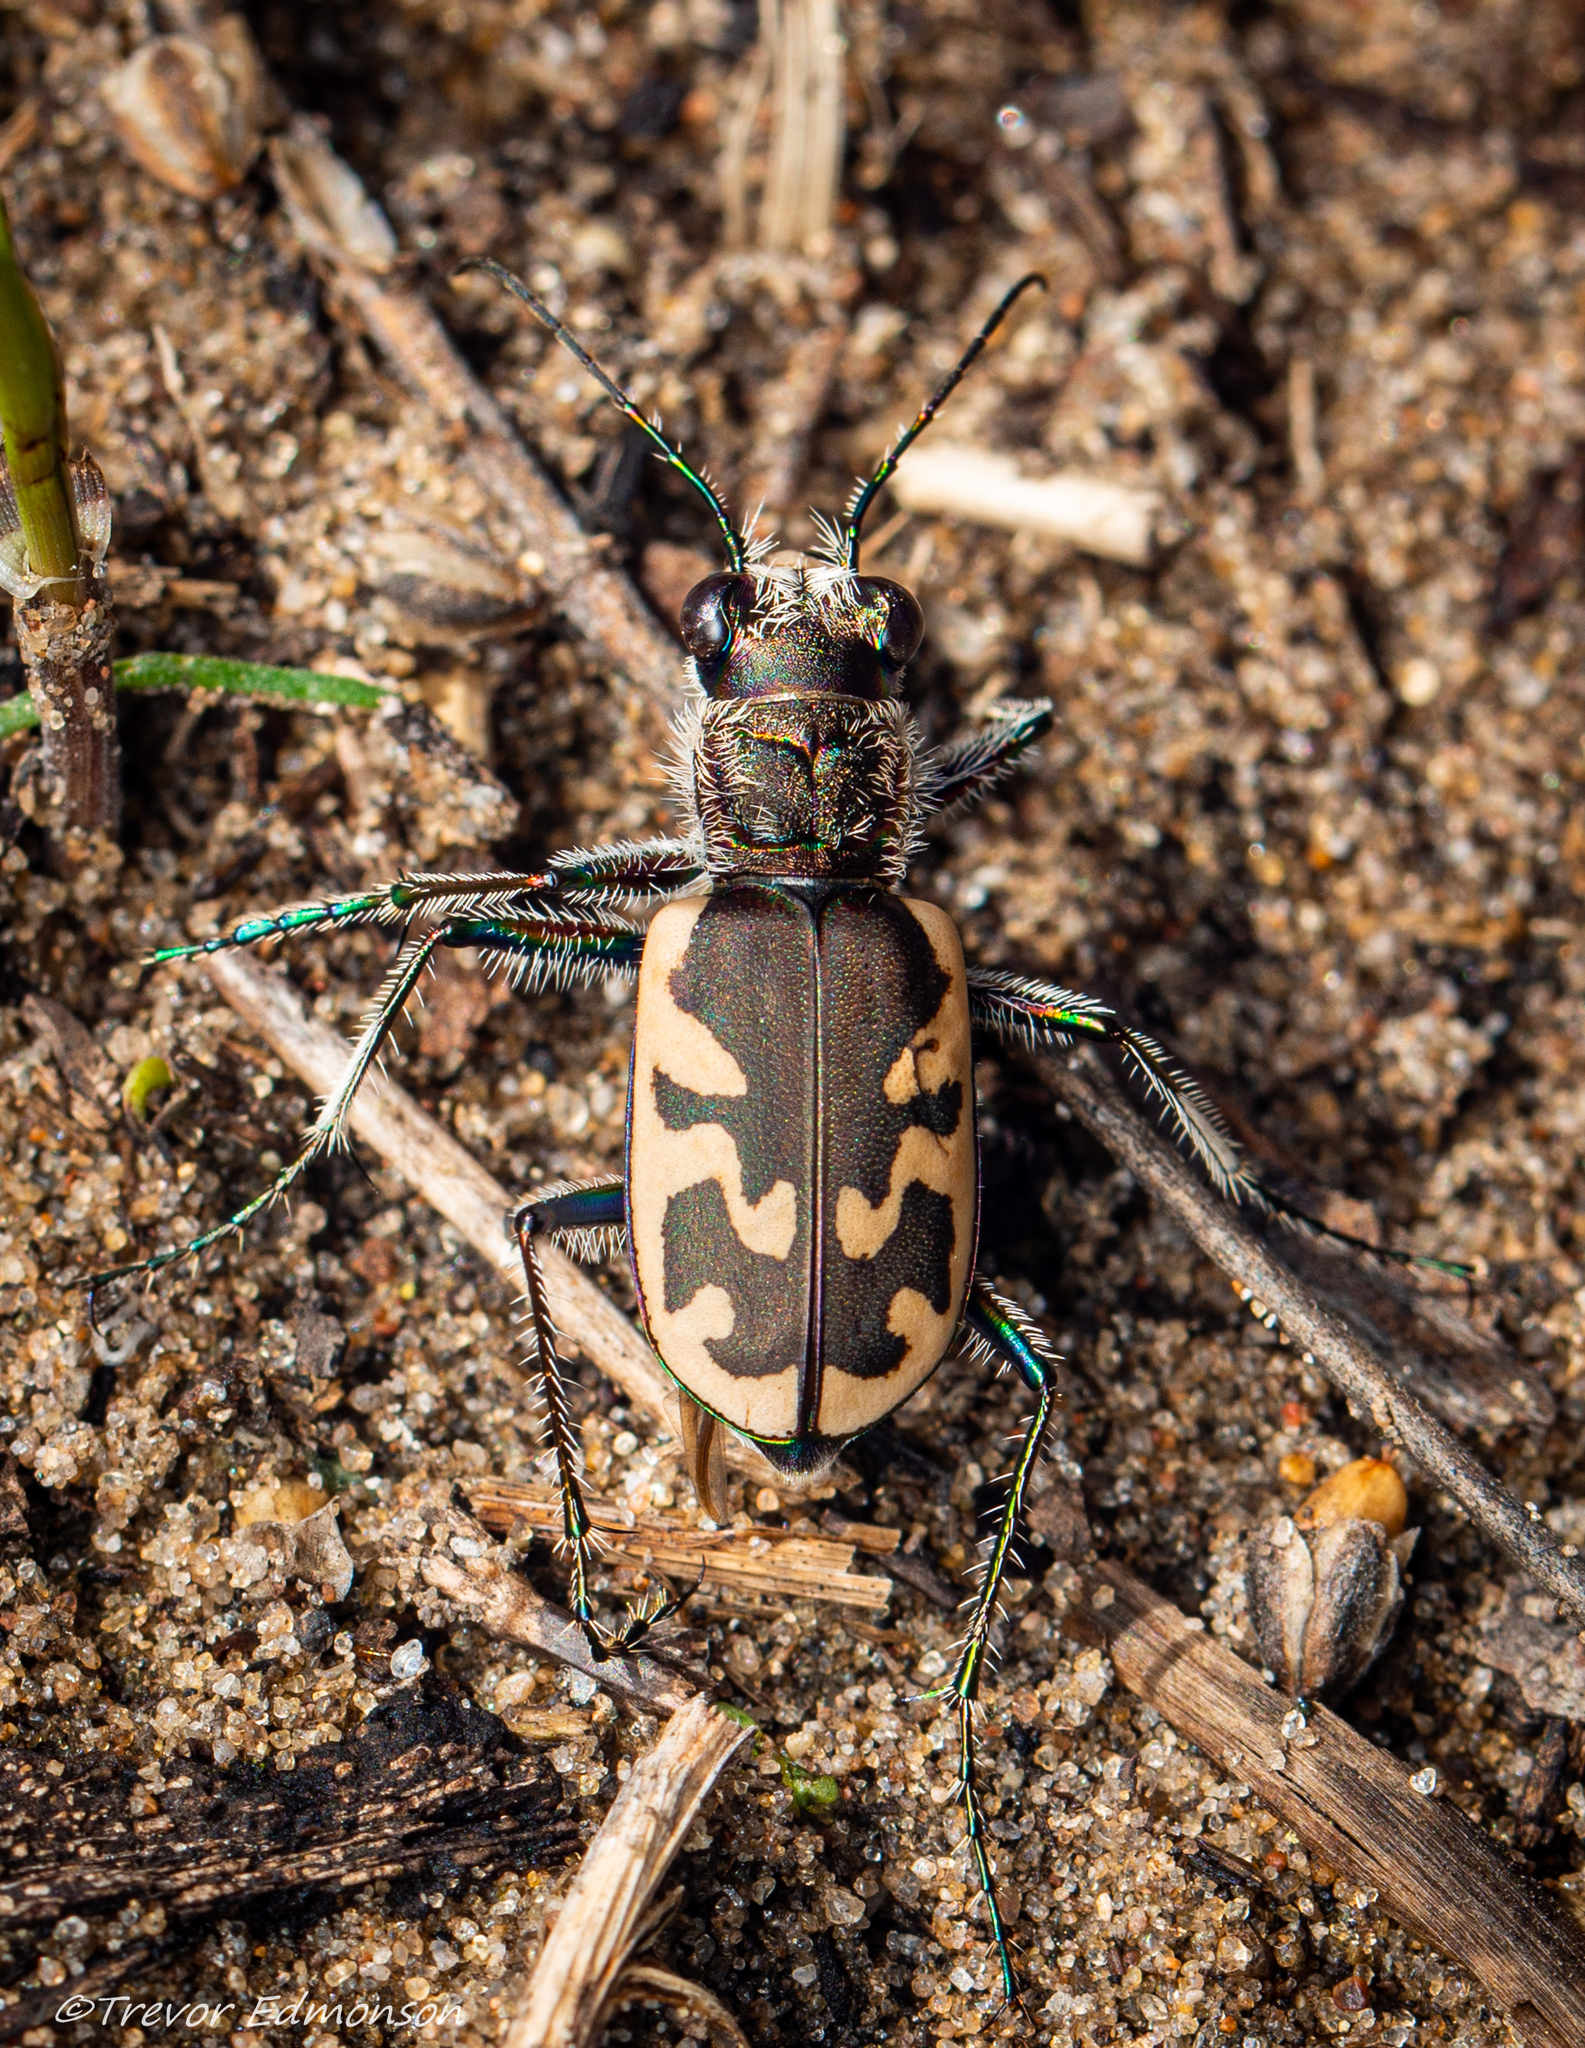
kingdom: Animalia
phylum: Arthropoda
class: Insecta
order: Coleoptera
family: Carabidae
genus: Cicindela
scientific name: Cicindela formosa
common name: Big sand tiger beetle
